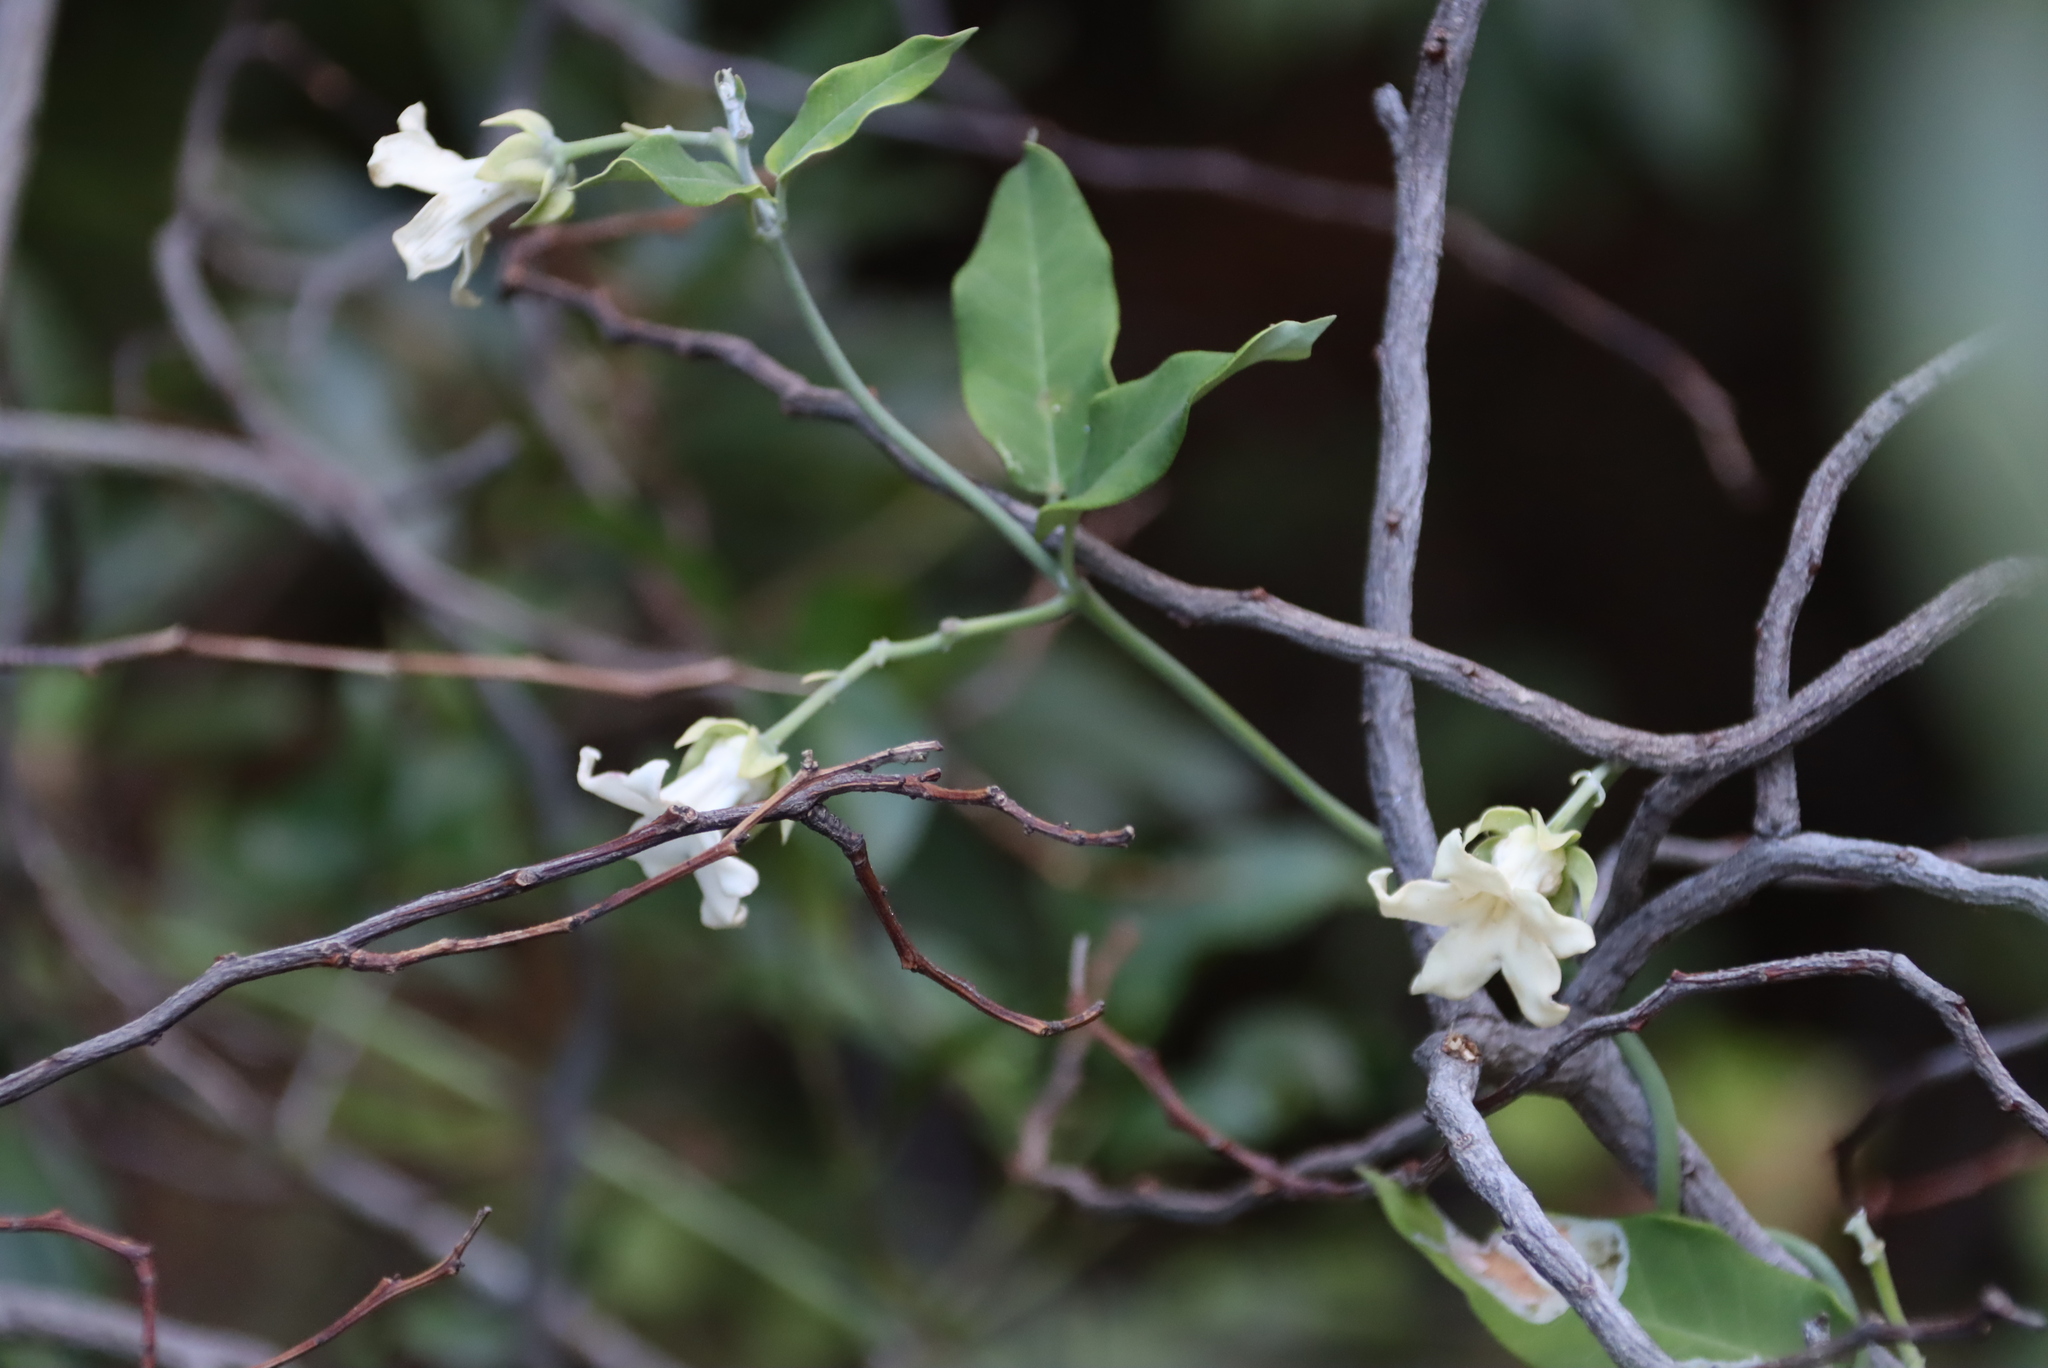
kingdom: Plantae
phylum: Tracheophyta
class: Magnoliopsida
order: Gentianales
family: Apocynaceae
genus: Araujia
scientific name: Araujia sericifera
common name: White bladderflower
